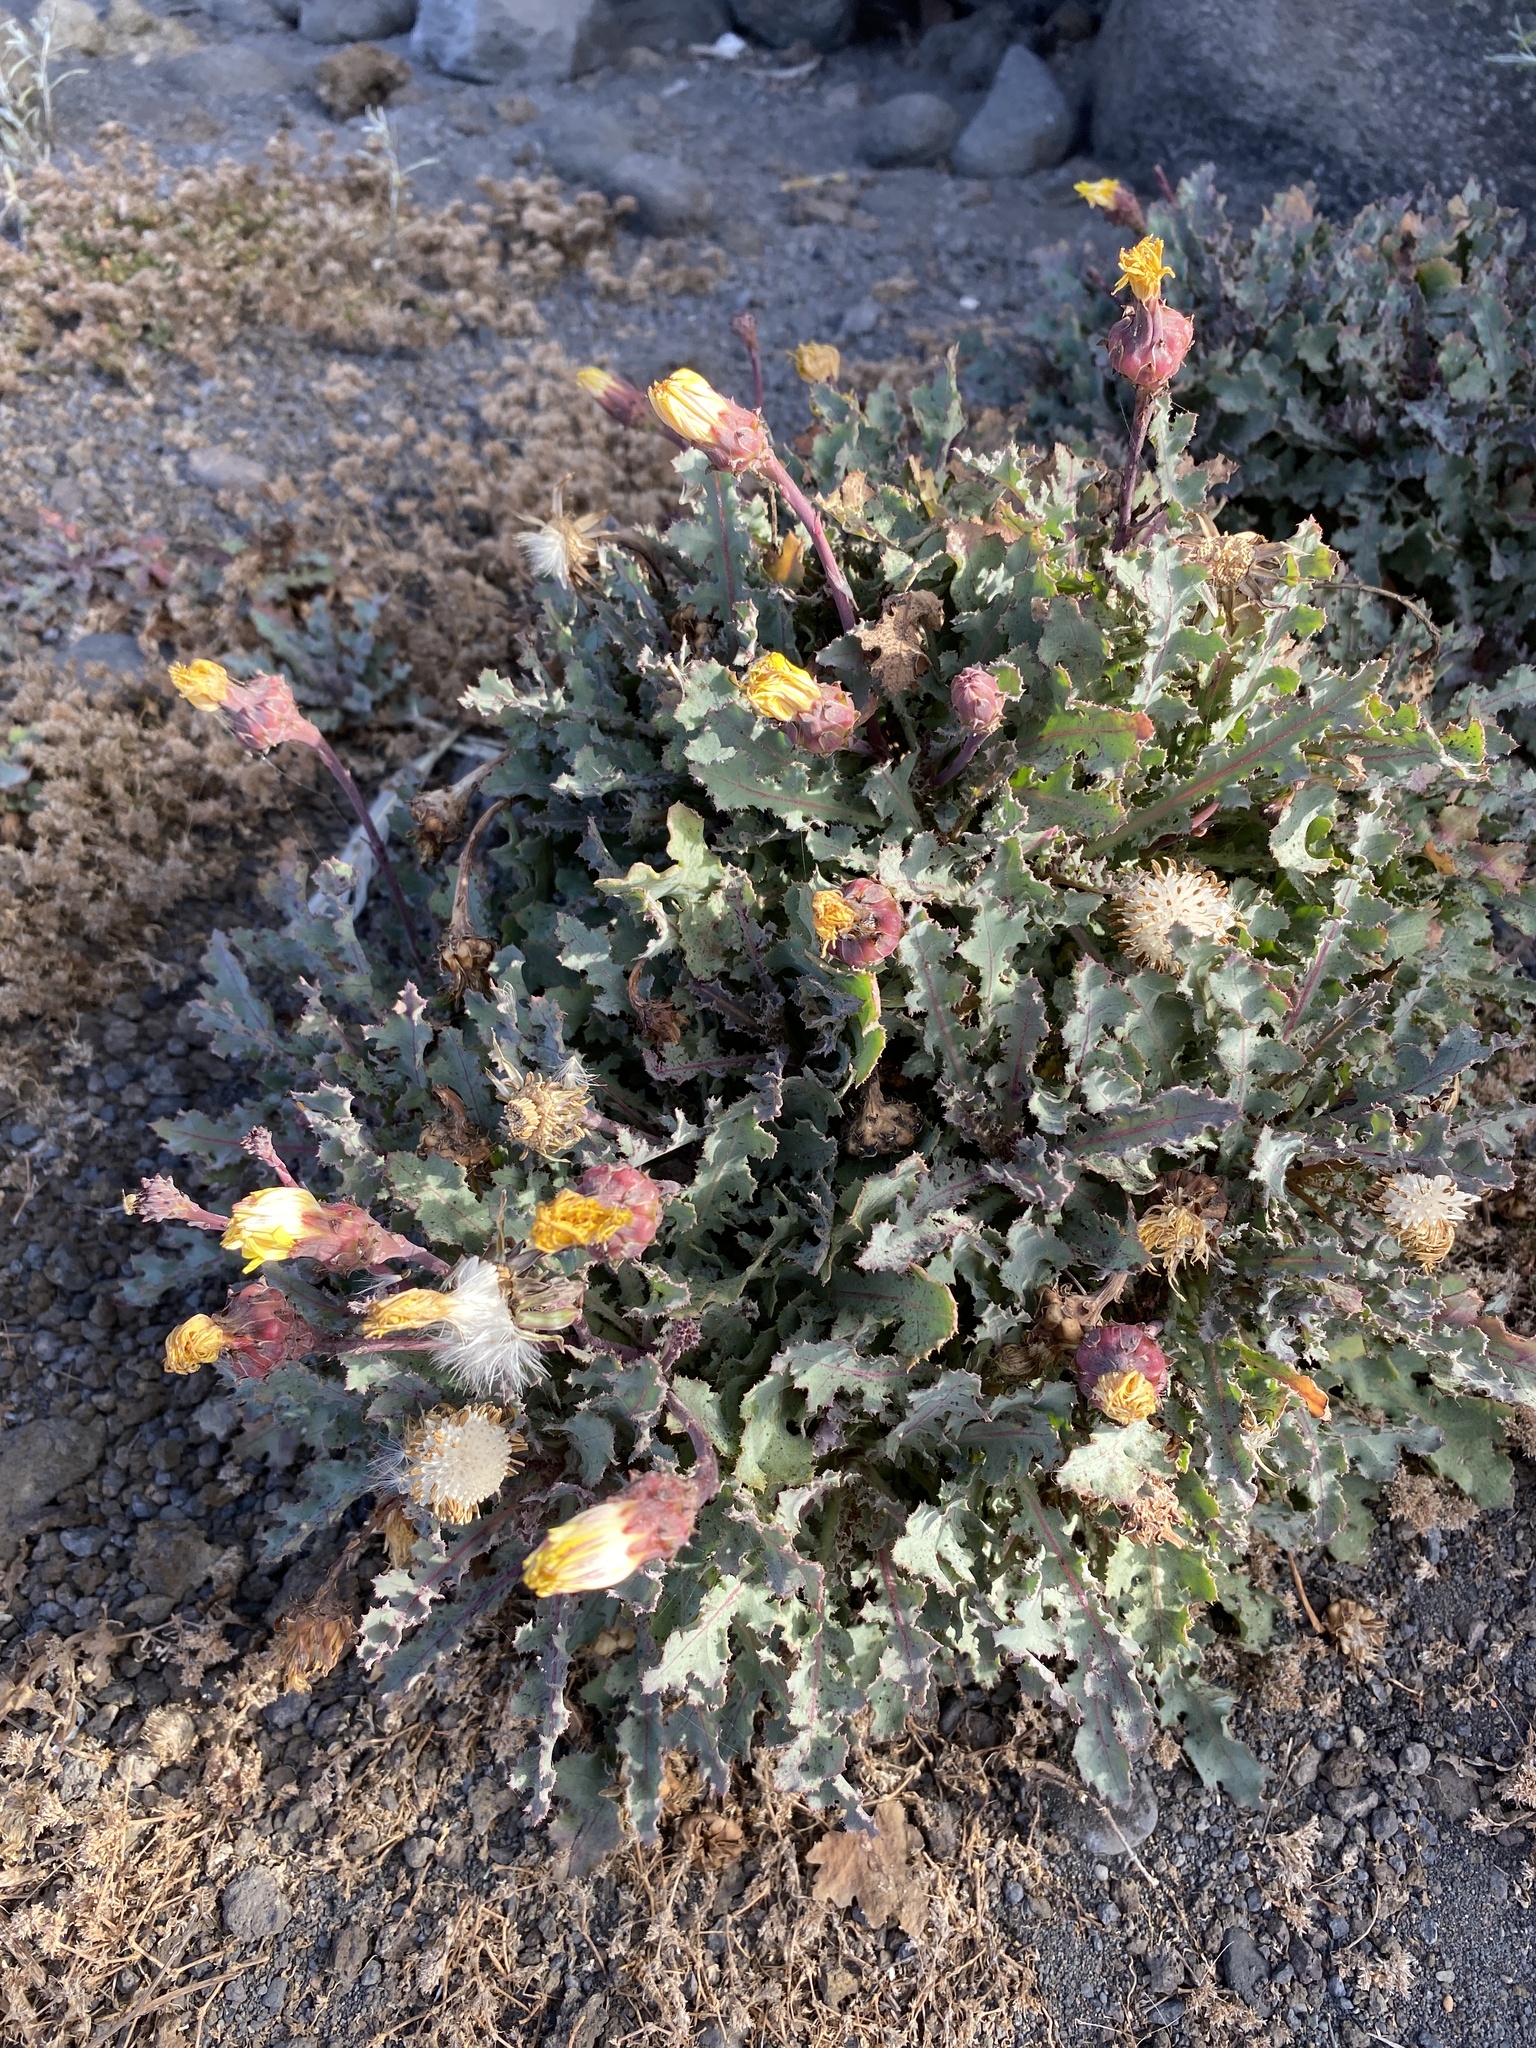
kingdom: Plantae
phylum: Tracheophyta
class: Magnoliopsida
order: Asterales
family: Asteraceae
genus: Reichardia
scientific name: Reichardia ligulata
